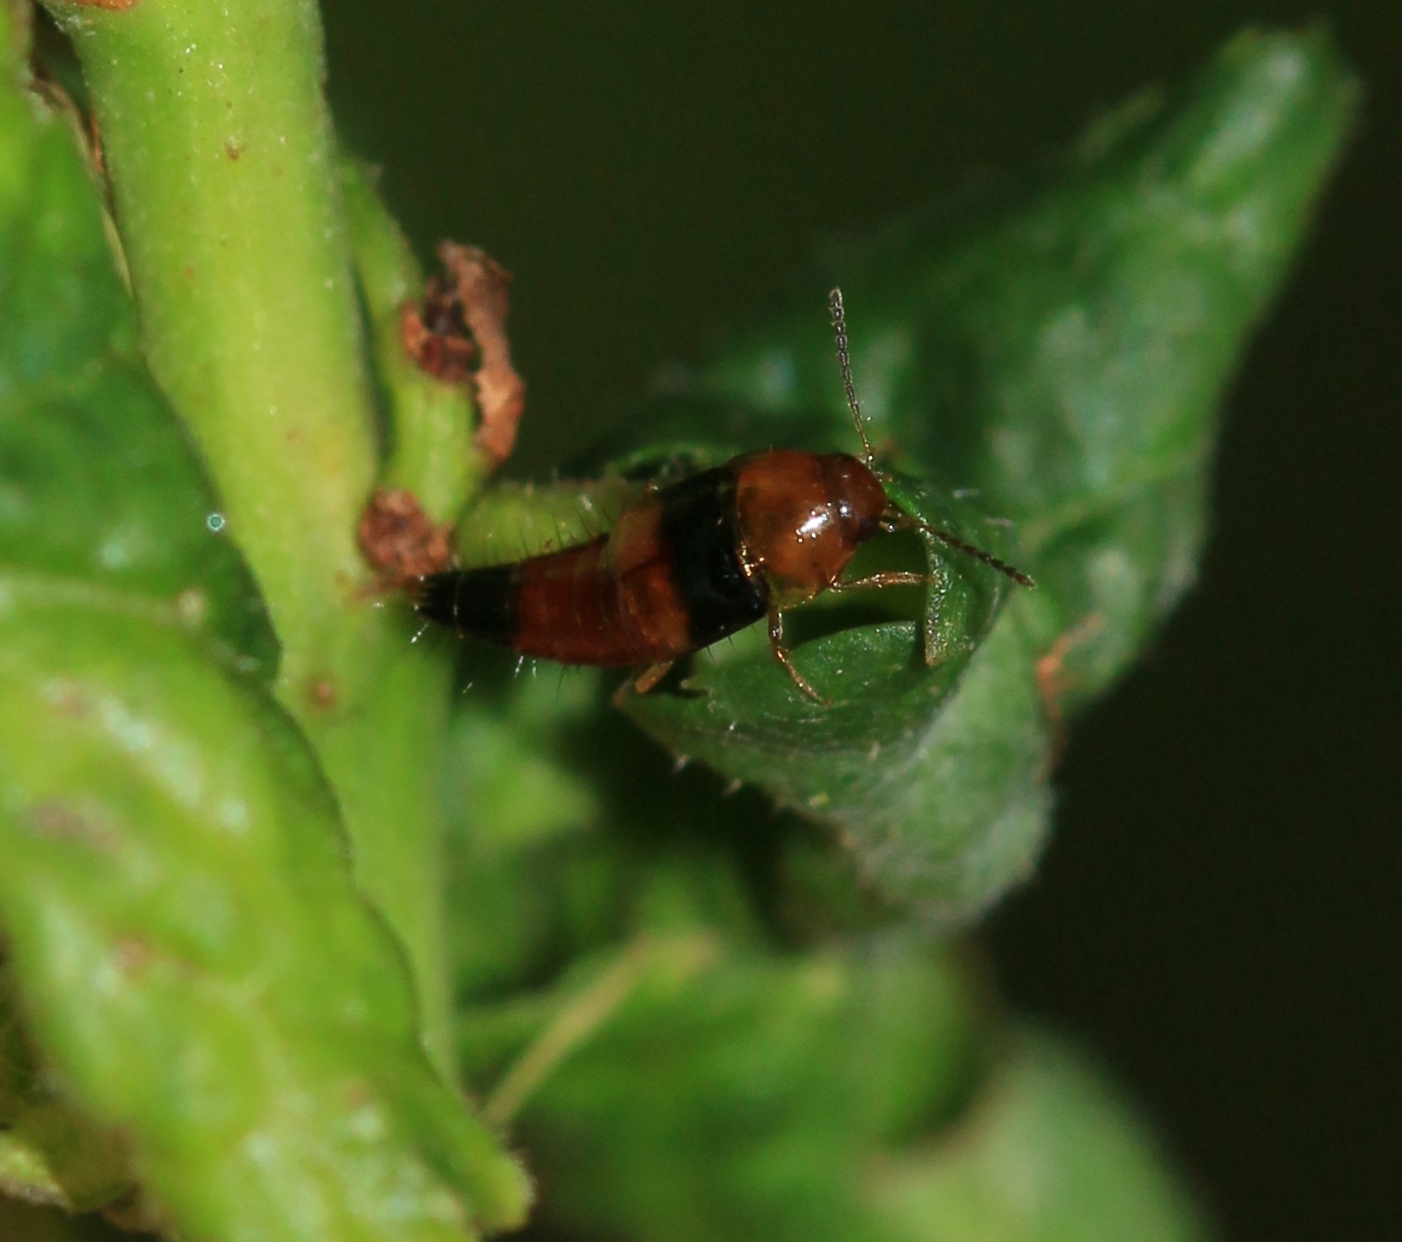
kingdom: Animalia
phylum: Arthropoda
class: Insecta
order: Coleoptera
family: Staphylinidae
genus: Tachyporus
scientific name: Tachyporus obtusus
